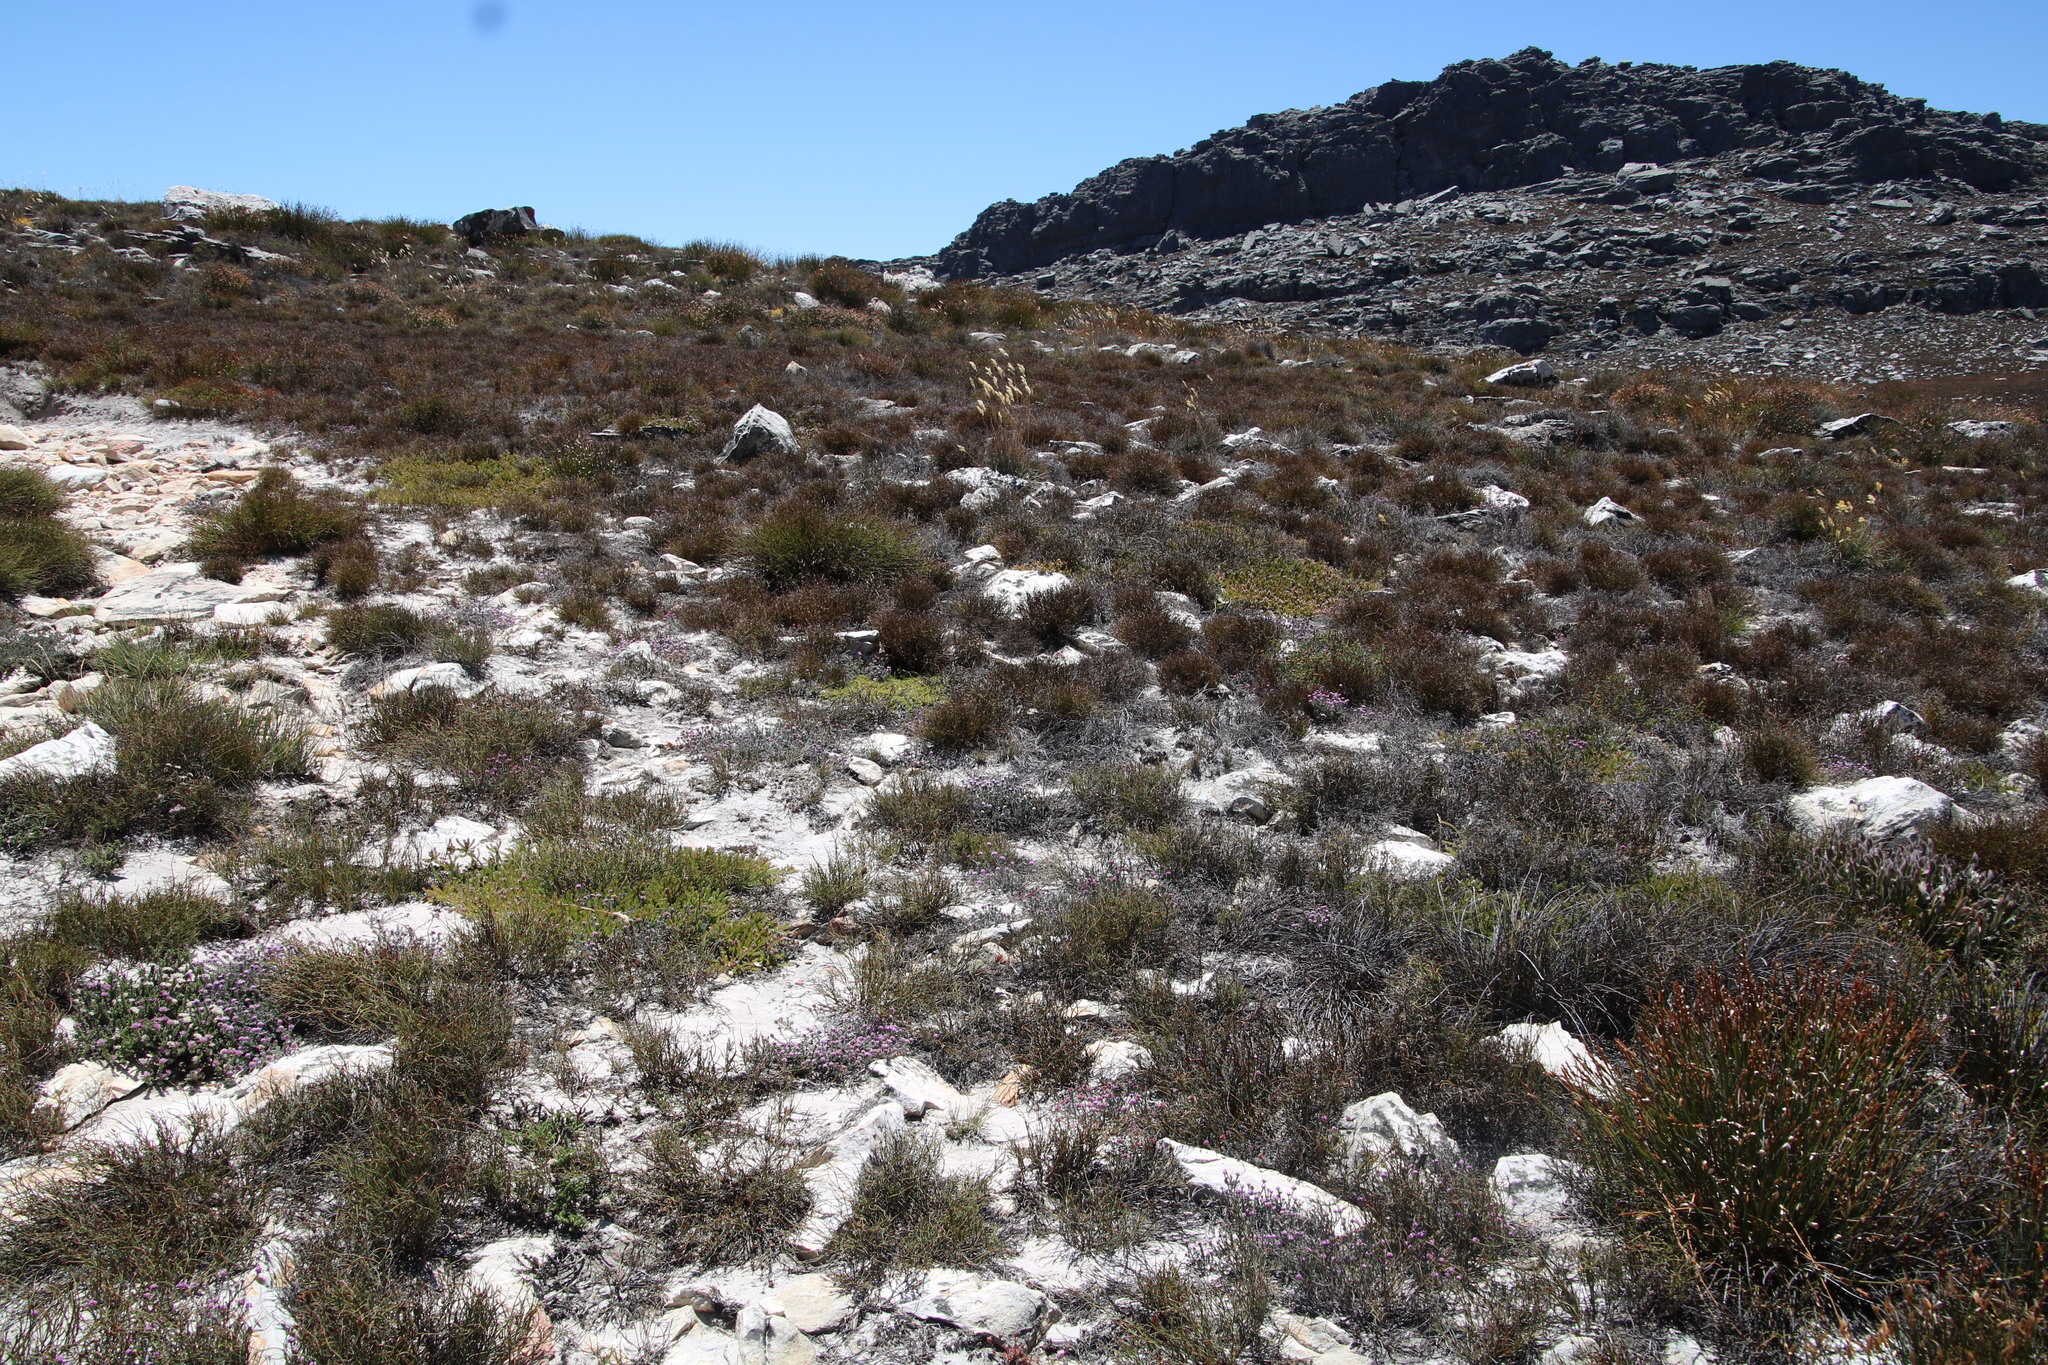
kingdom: Plantae
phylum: Tracheophyta
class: Magnoliopsida
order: Proteales
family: Proteaceae
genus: Spatalla
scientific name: Spatalla confusa
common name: Long-tube spoon
